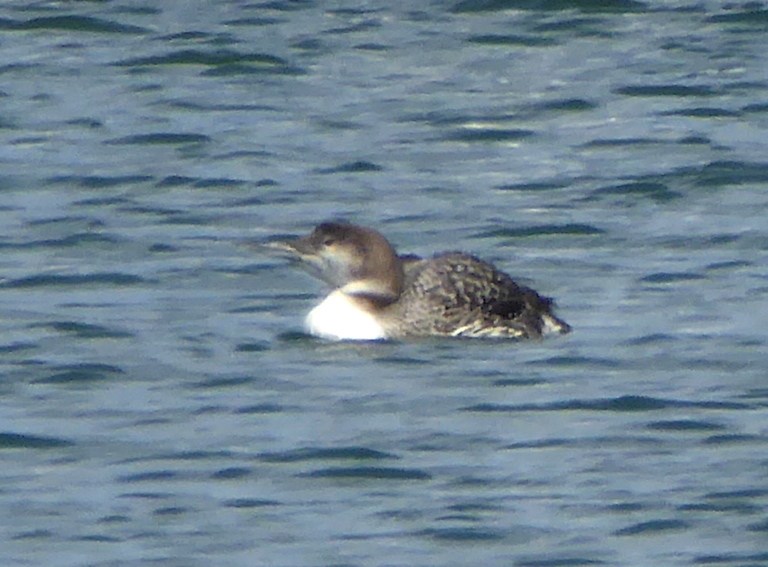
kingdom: Animalia
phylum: Chordata
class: Aves
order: Gaviiformes
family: Gaviidae
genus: Gavia
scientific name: Gavia immer
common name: Common loon
